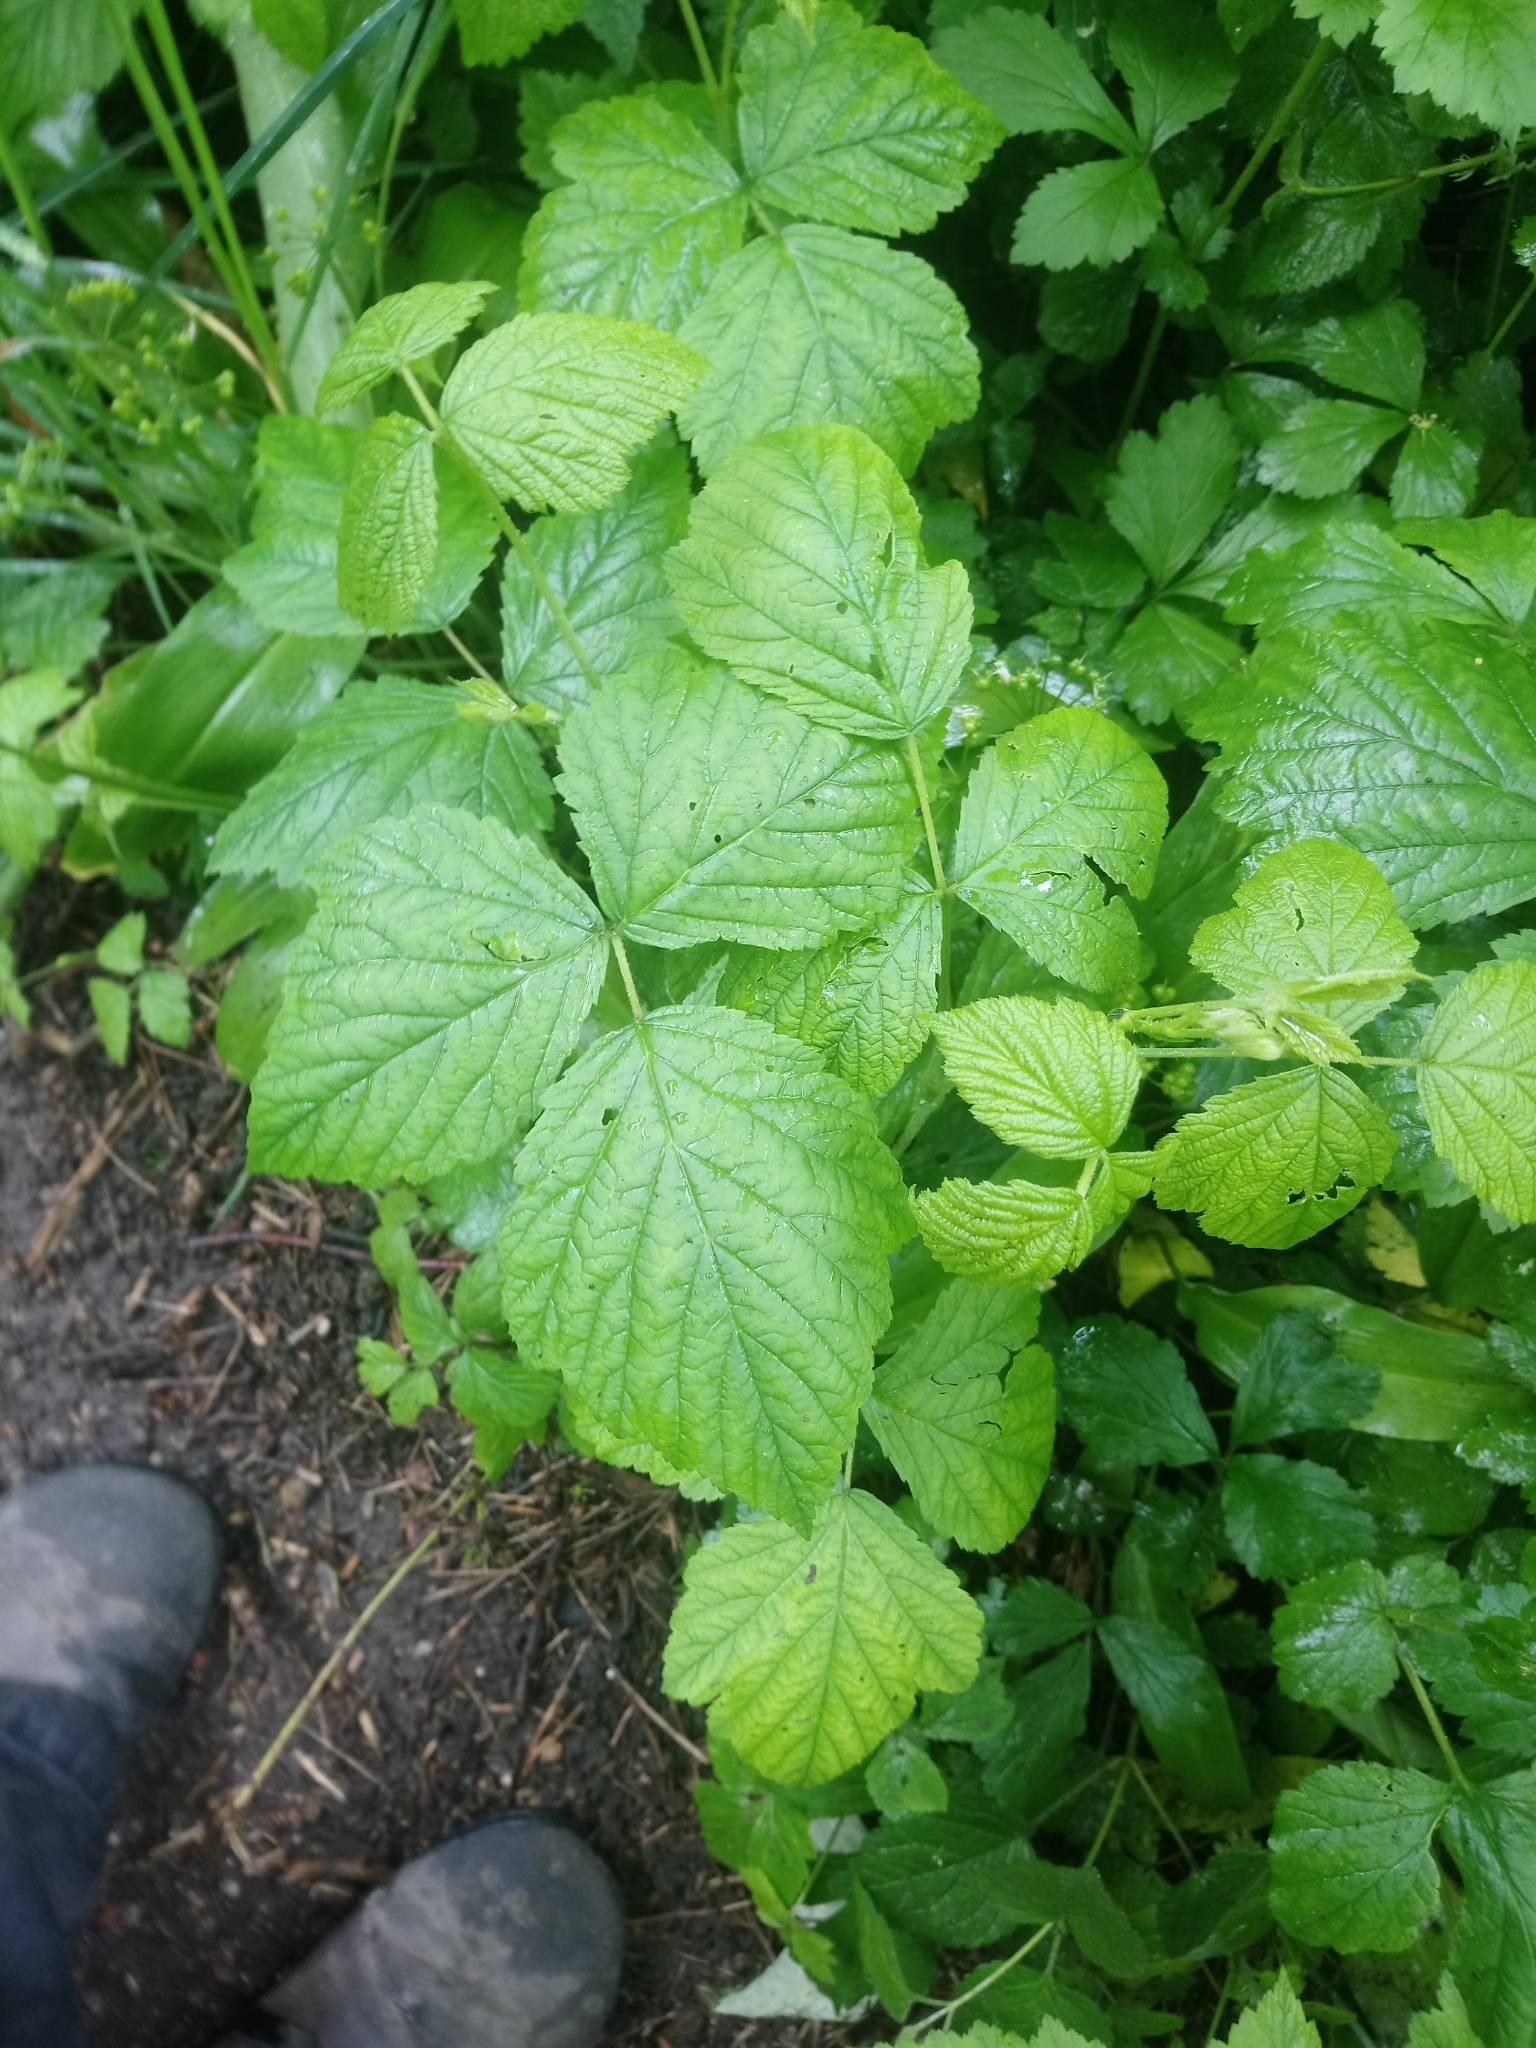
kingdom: Plantae
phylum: Tracheophyta
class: Magnoliopsida
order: Rosales
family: Rosaceae
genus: Rubus
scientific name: Rubus caesius
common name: Dewberry
